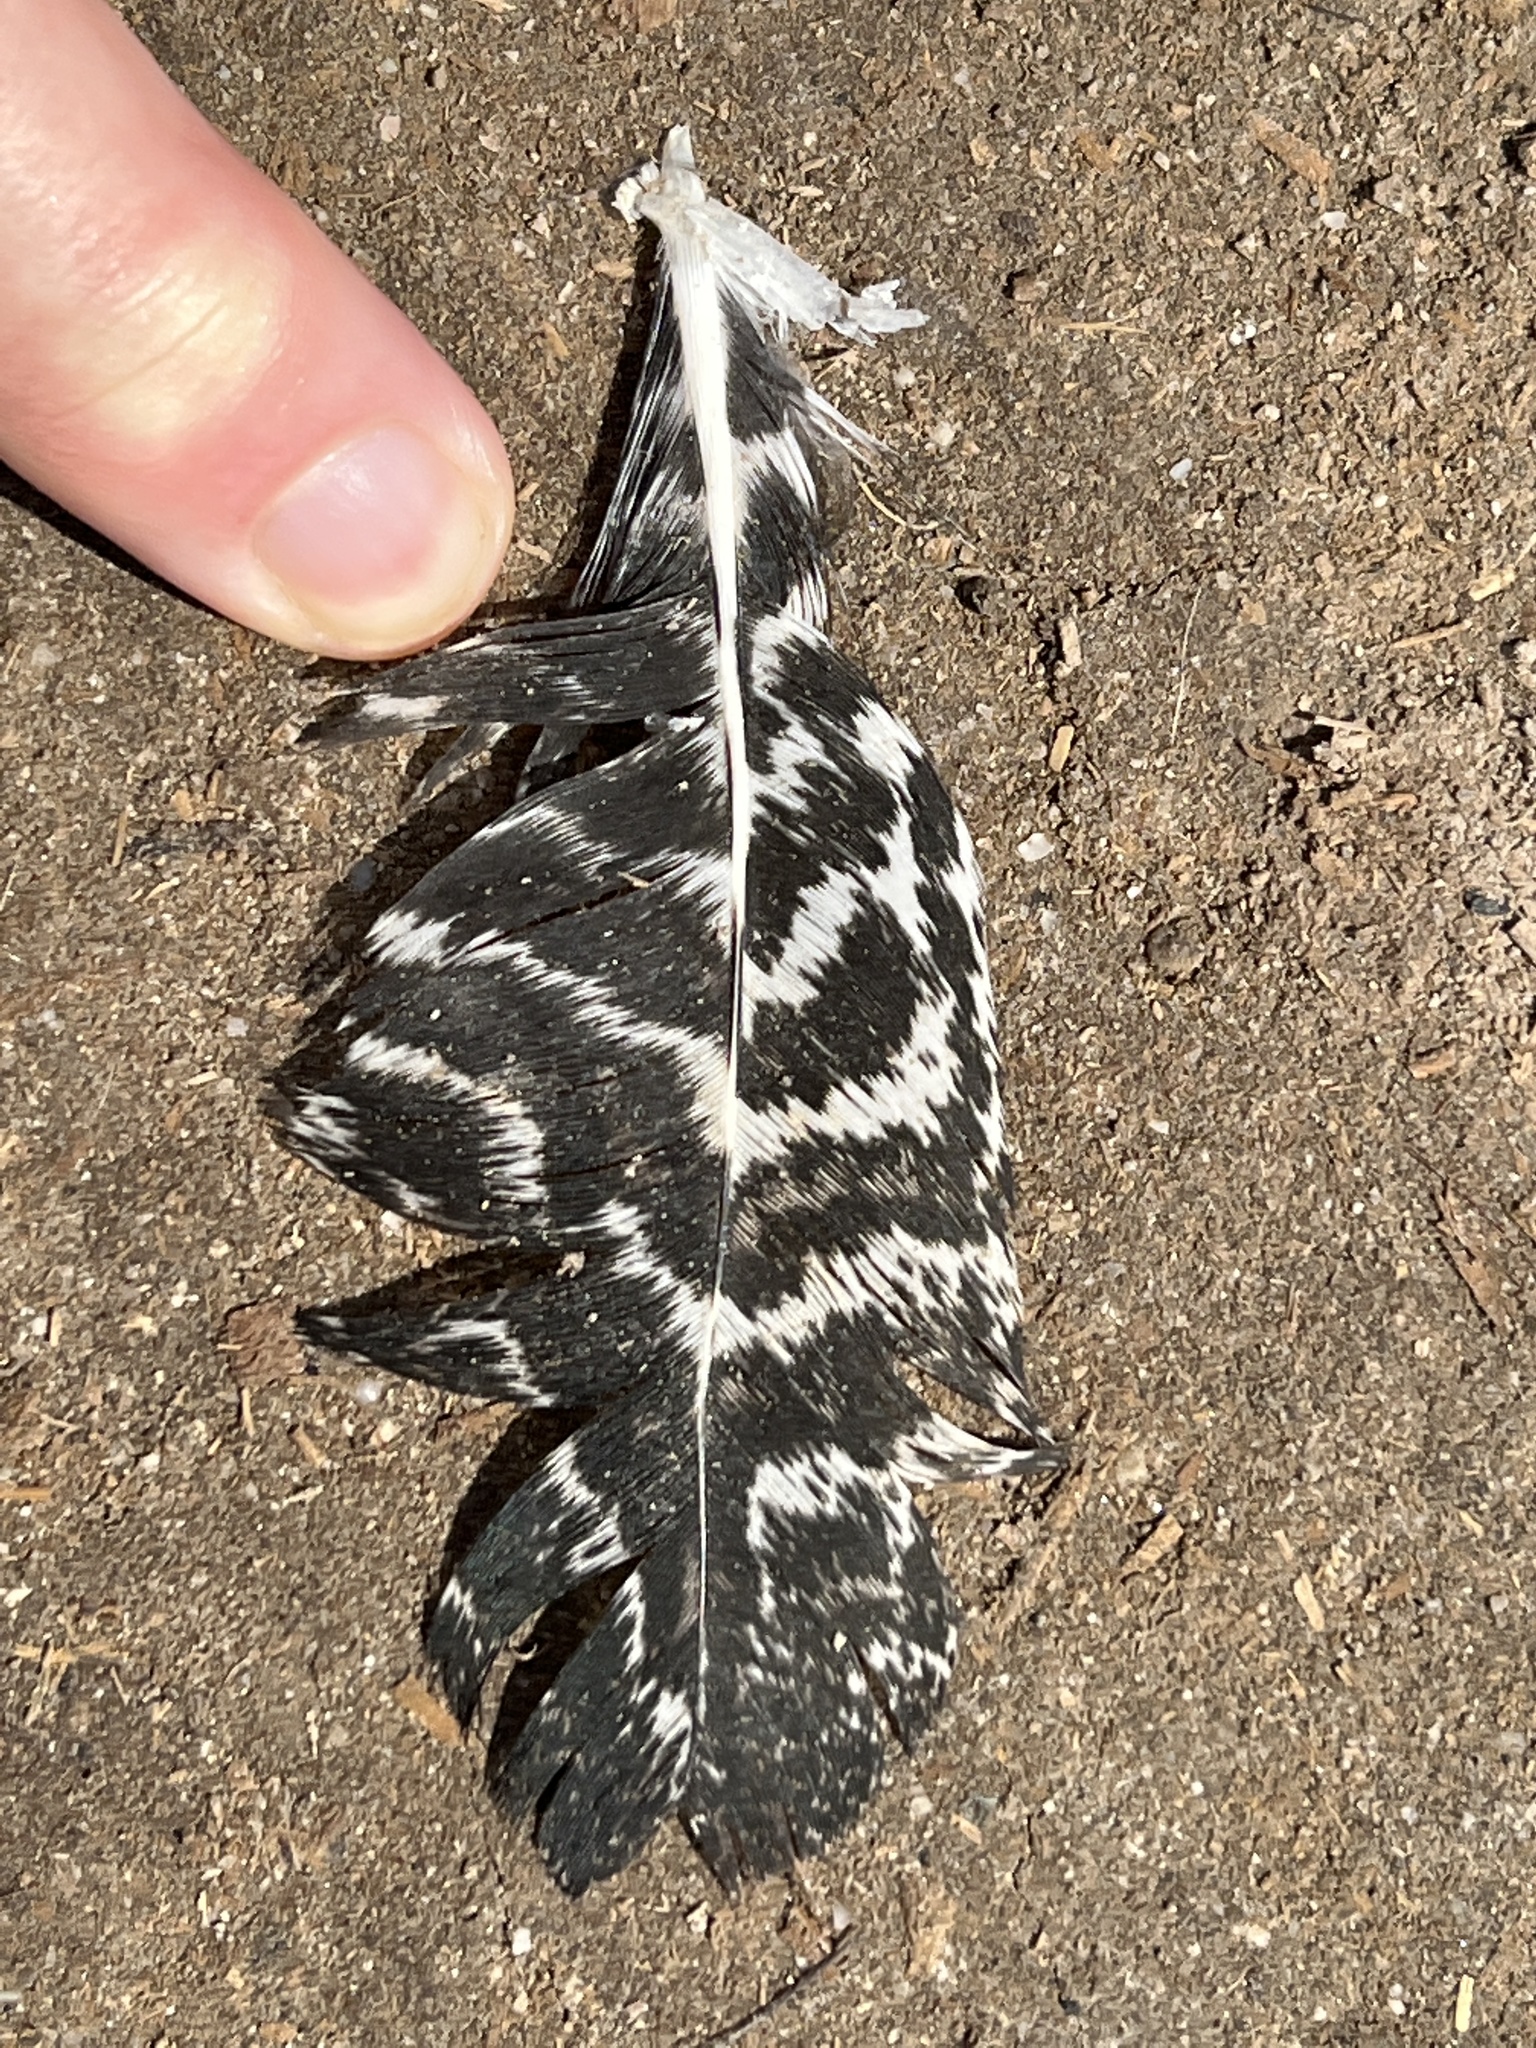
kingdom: Animalia
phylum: Chordata
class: Aves
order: Galliformes
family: Phasianidae
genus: Ortygornis
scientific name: Ortygornis pondicerianus
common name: Grey francolin
